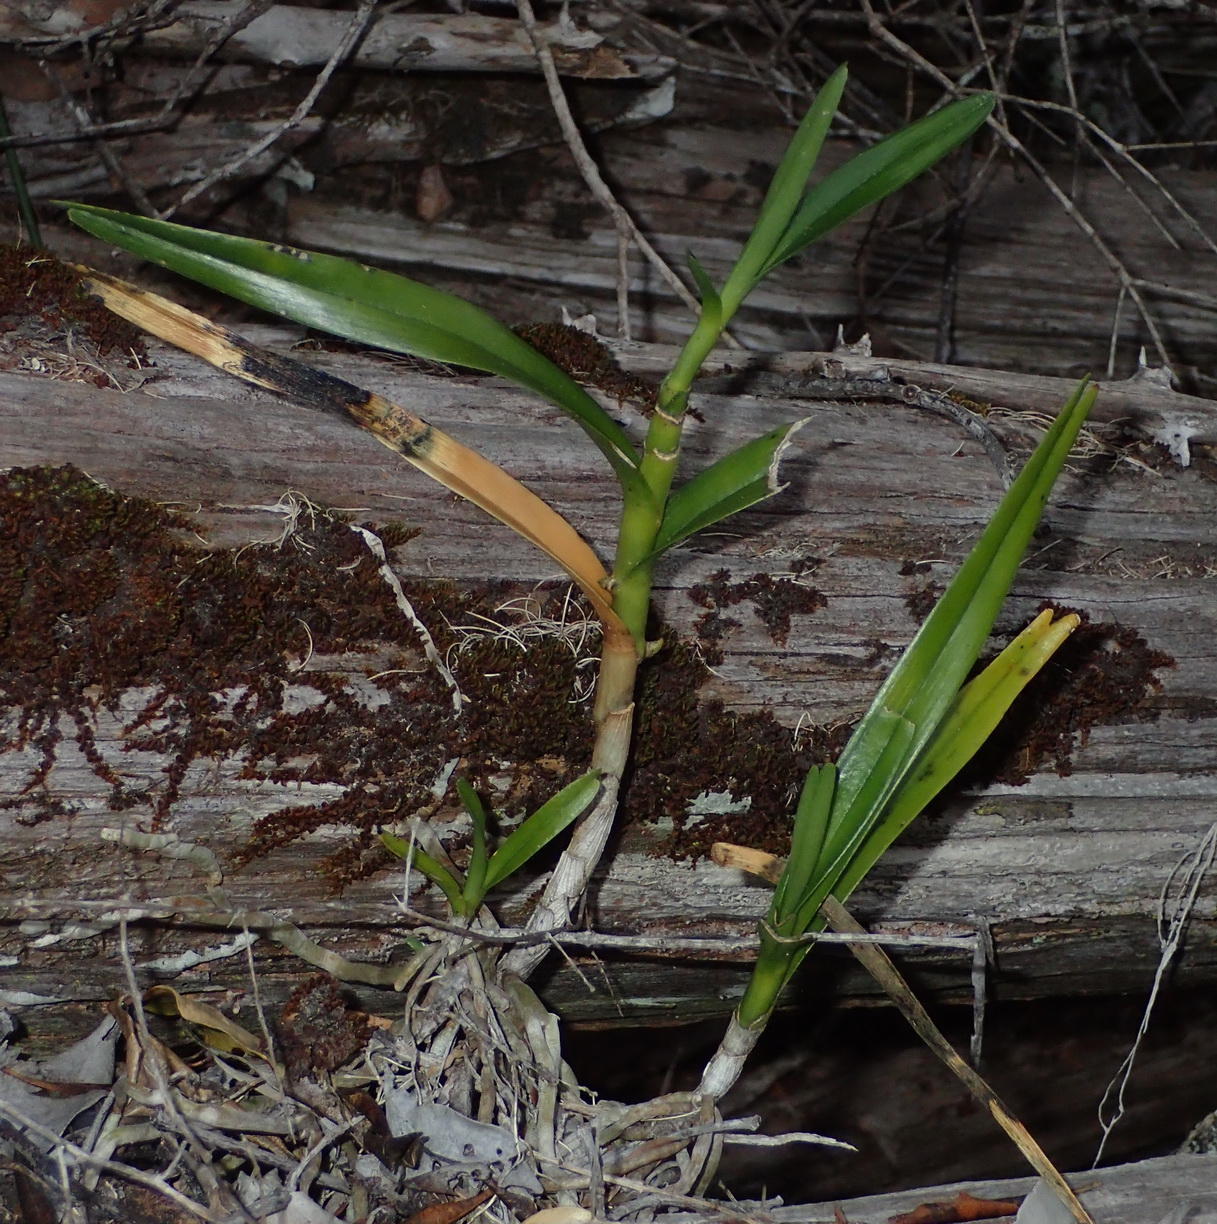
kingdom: Plantae
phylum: Tracheophyta
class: Liliopsida
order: Asparagales
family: Orchidaceae
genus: Tridactyle
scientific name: Tridactyle bicaudata
